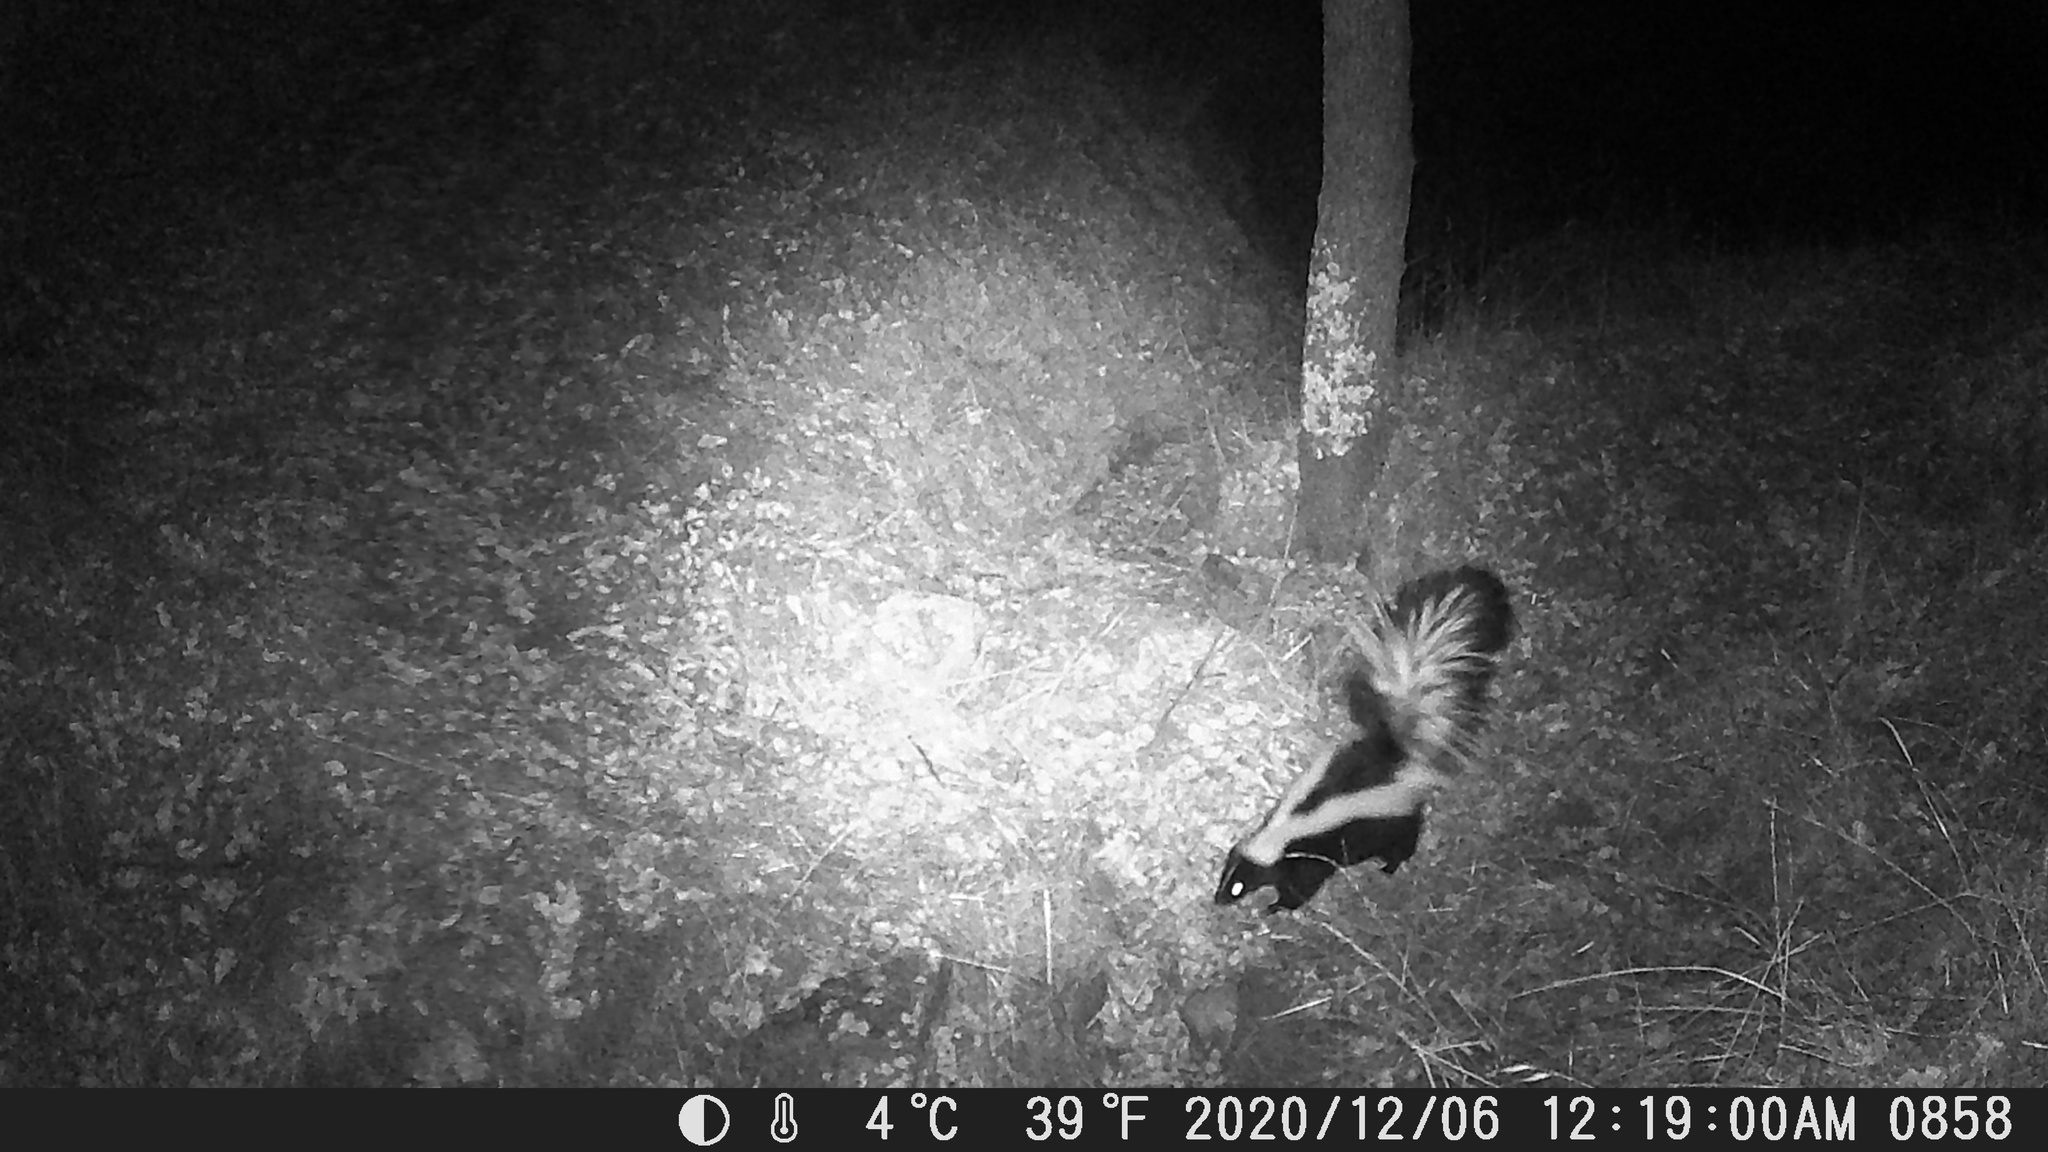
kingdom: Animalia
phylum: Chordata
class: Mammalia
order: Carnivora
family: Mephitidae
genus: Mephitis
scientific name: Mephitis mephitis
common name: Striped skunk
